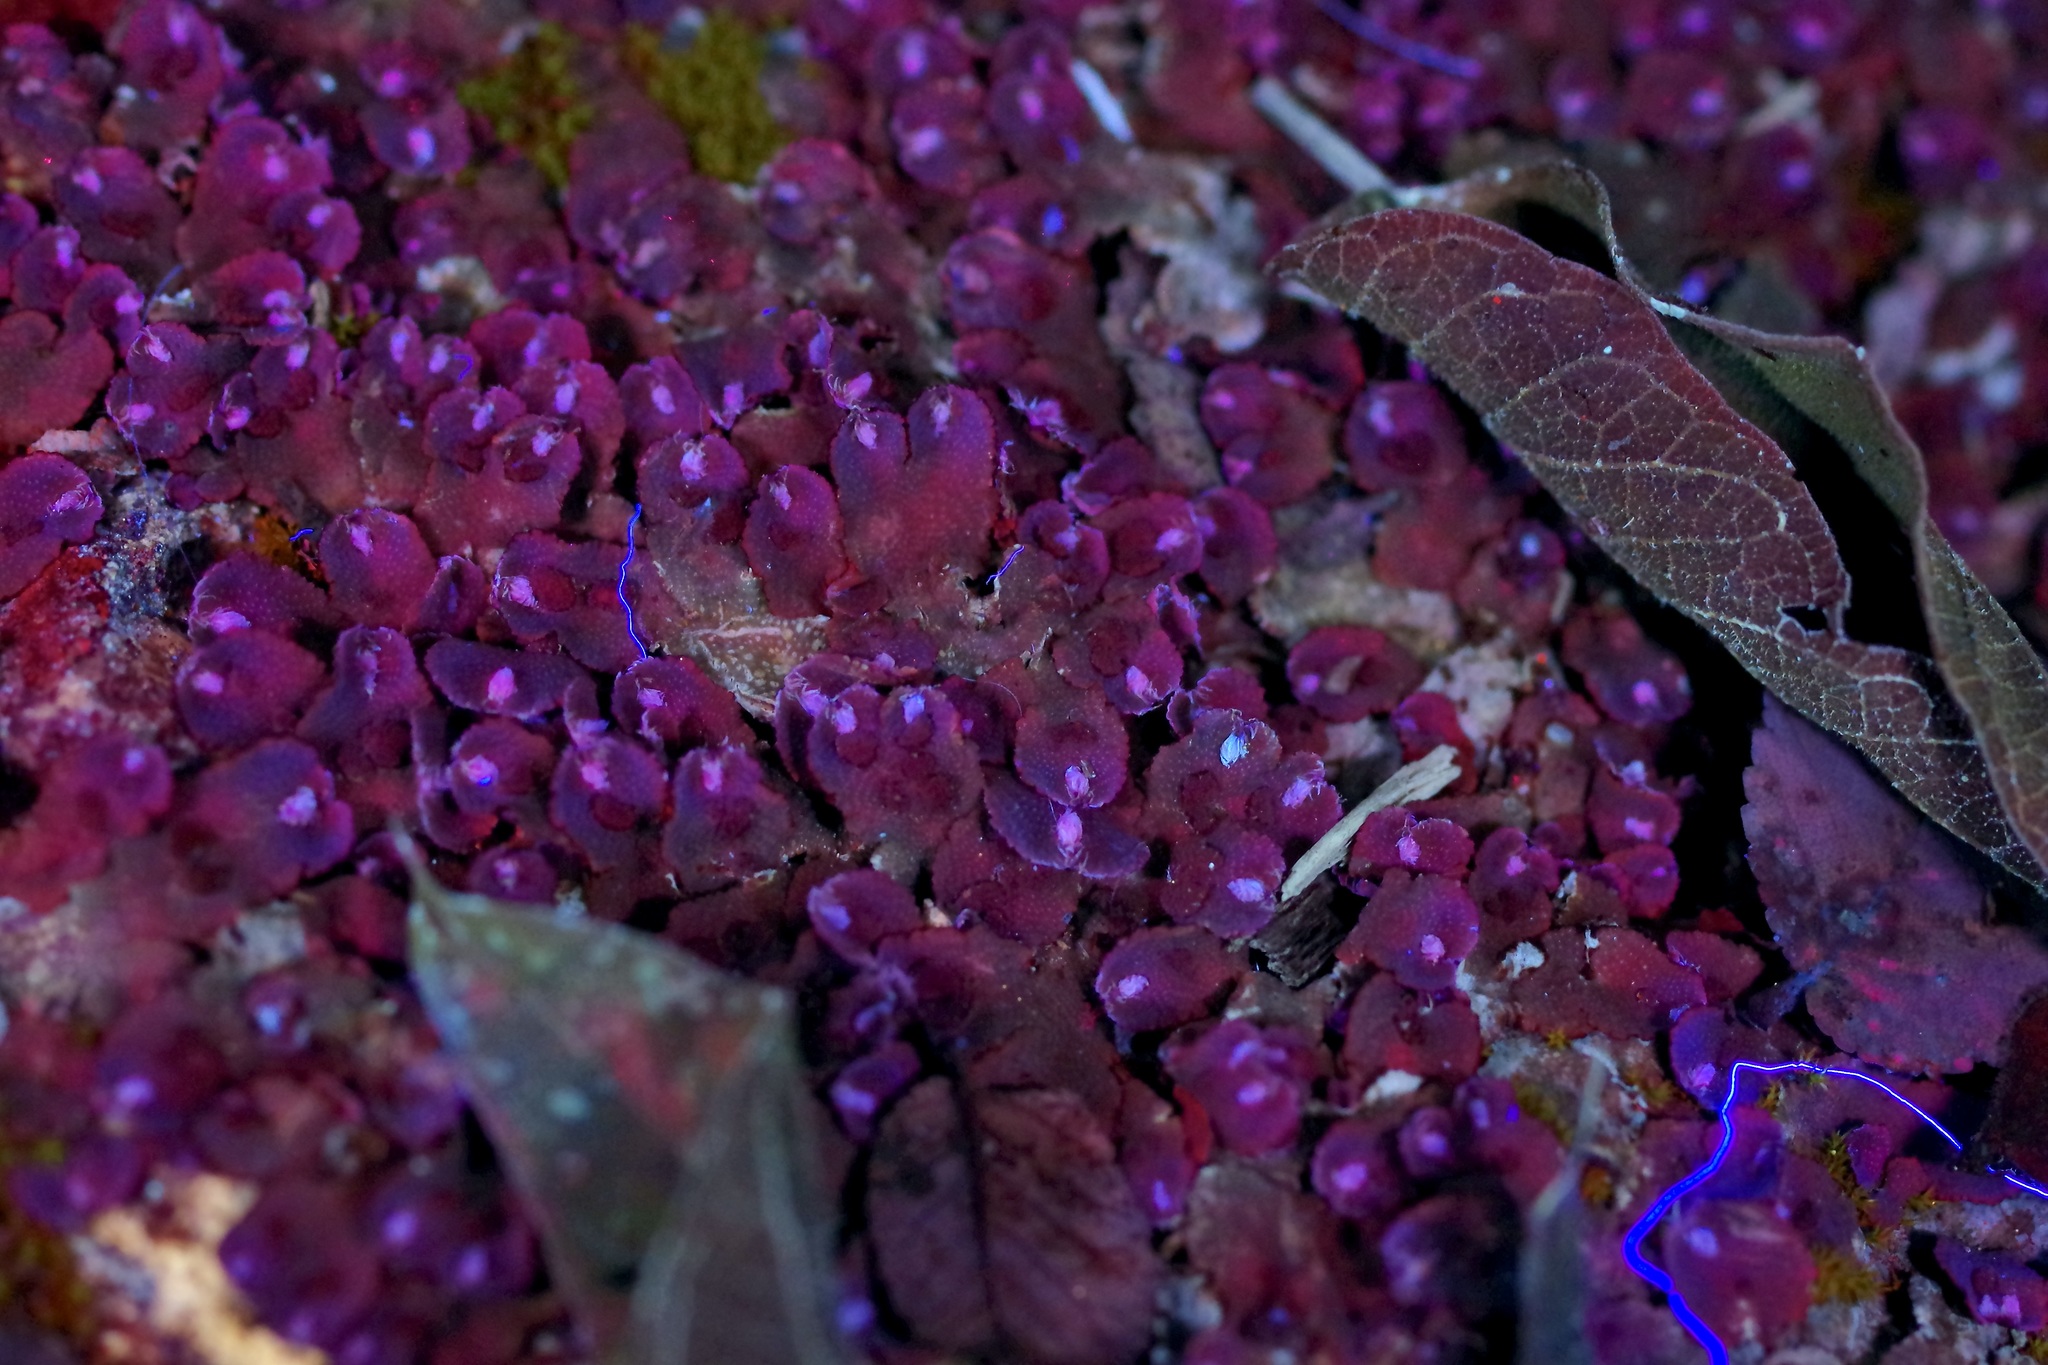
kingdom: Plantae
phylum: Marchantiophyta
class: Marchantiopsida
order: Marchantiales
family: Aytoniaceae
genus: Reboulia
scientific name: Reboulia hemisphaerica
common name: Purple-margined liverwort
